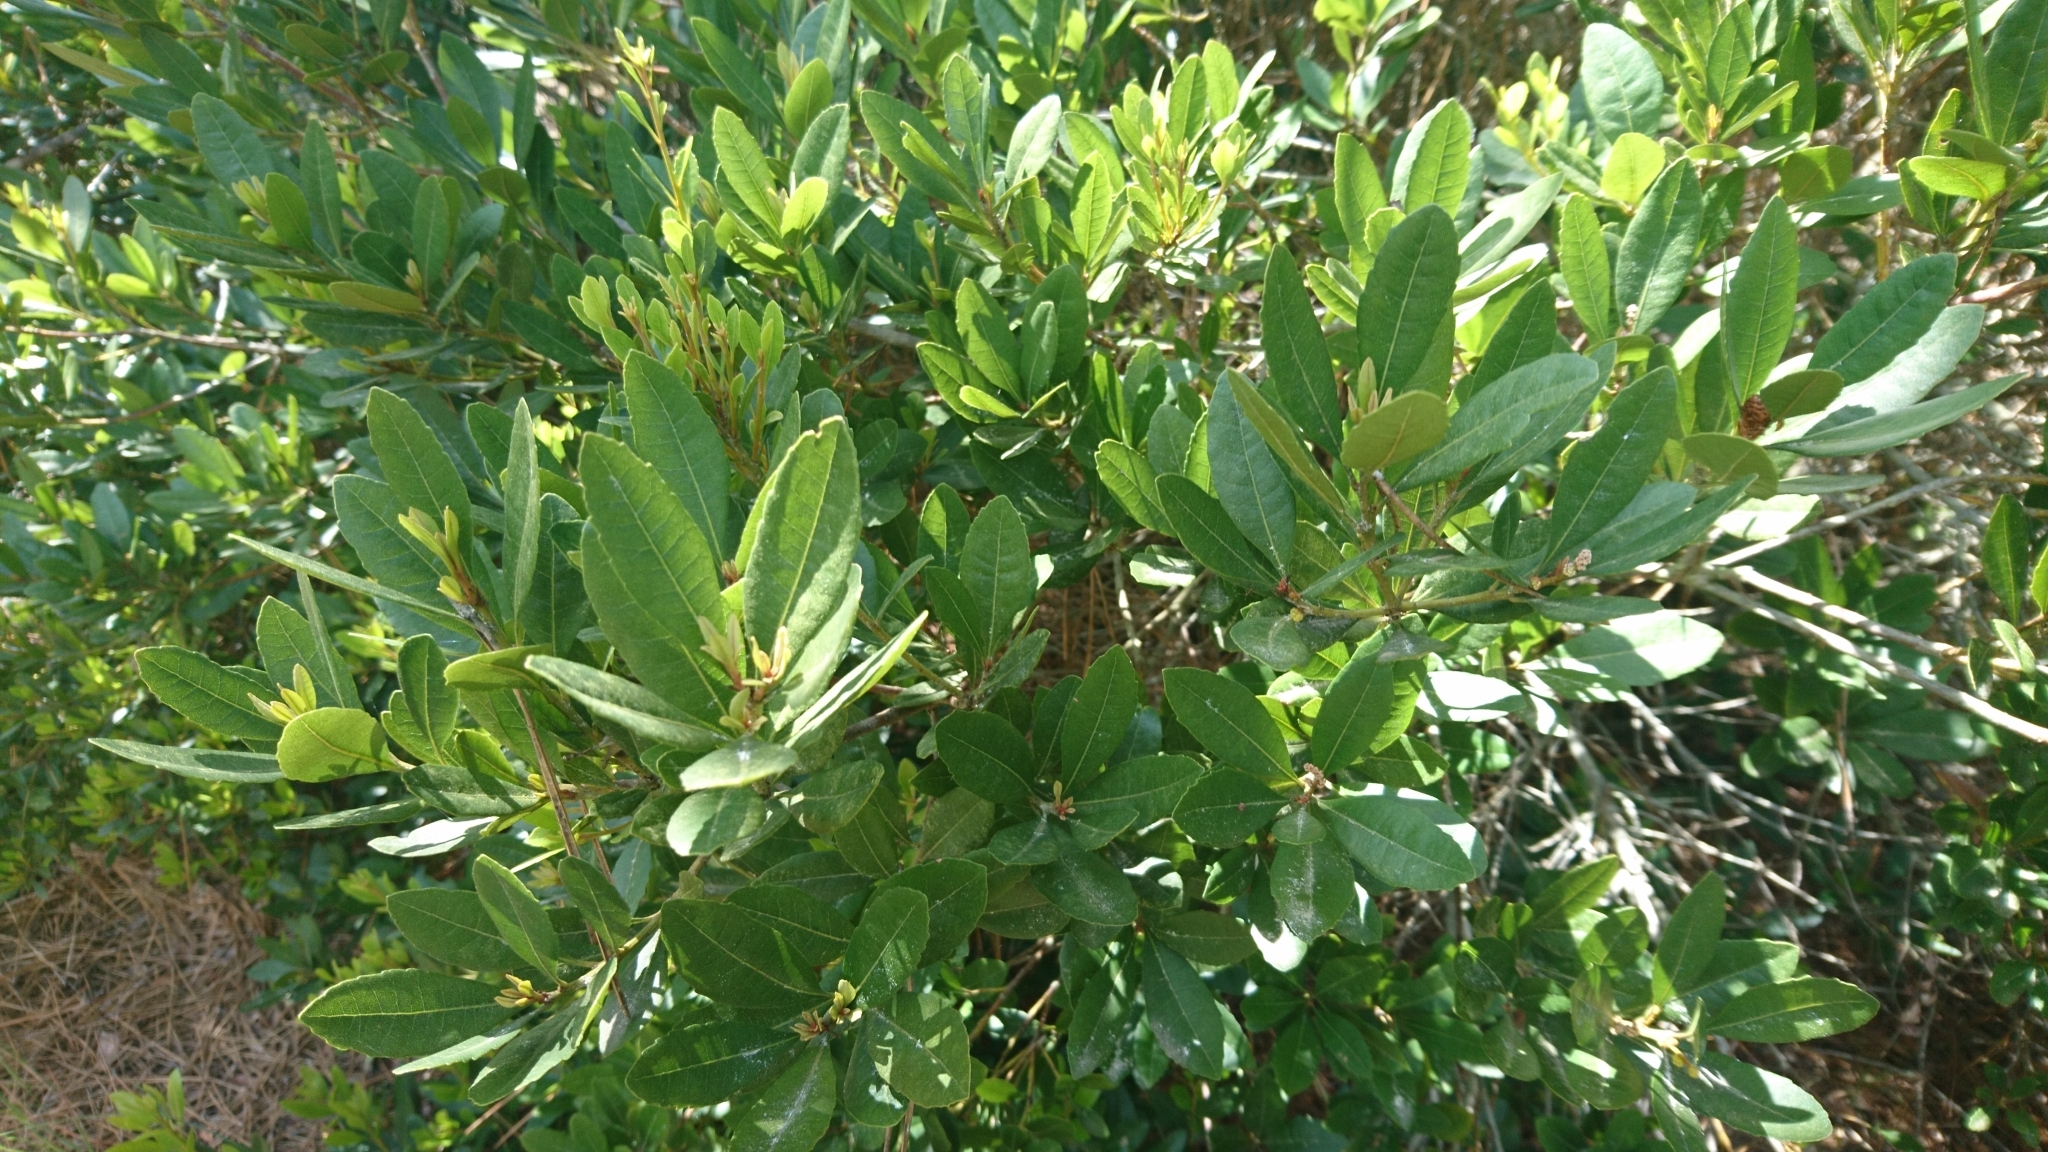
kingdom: Plantae
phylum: Tracheophyta
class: Magnoliopsida
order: Fagales
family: Myricaceae
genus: Morella
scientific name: Morella faya
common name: Firetree
